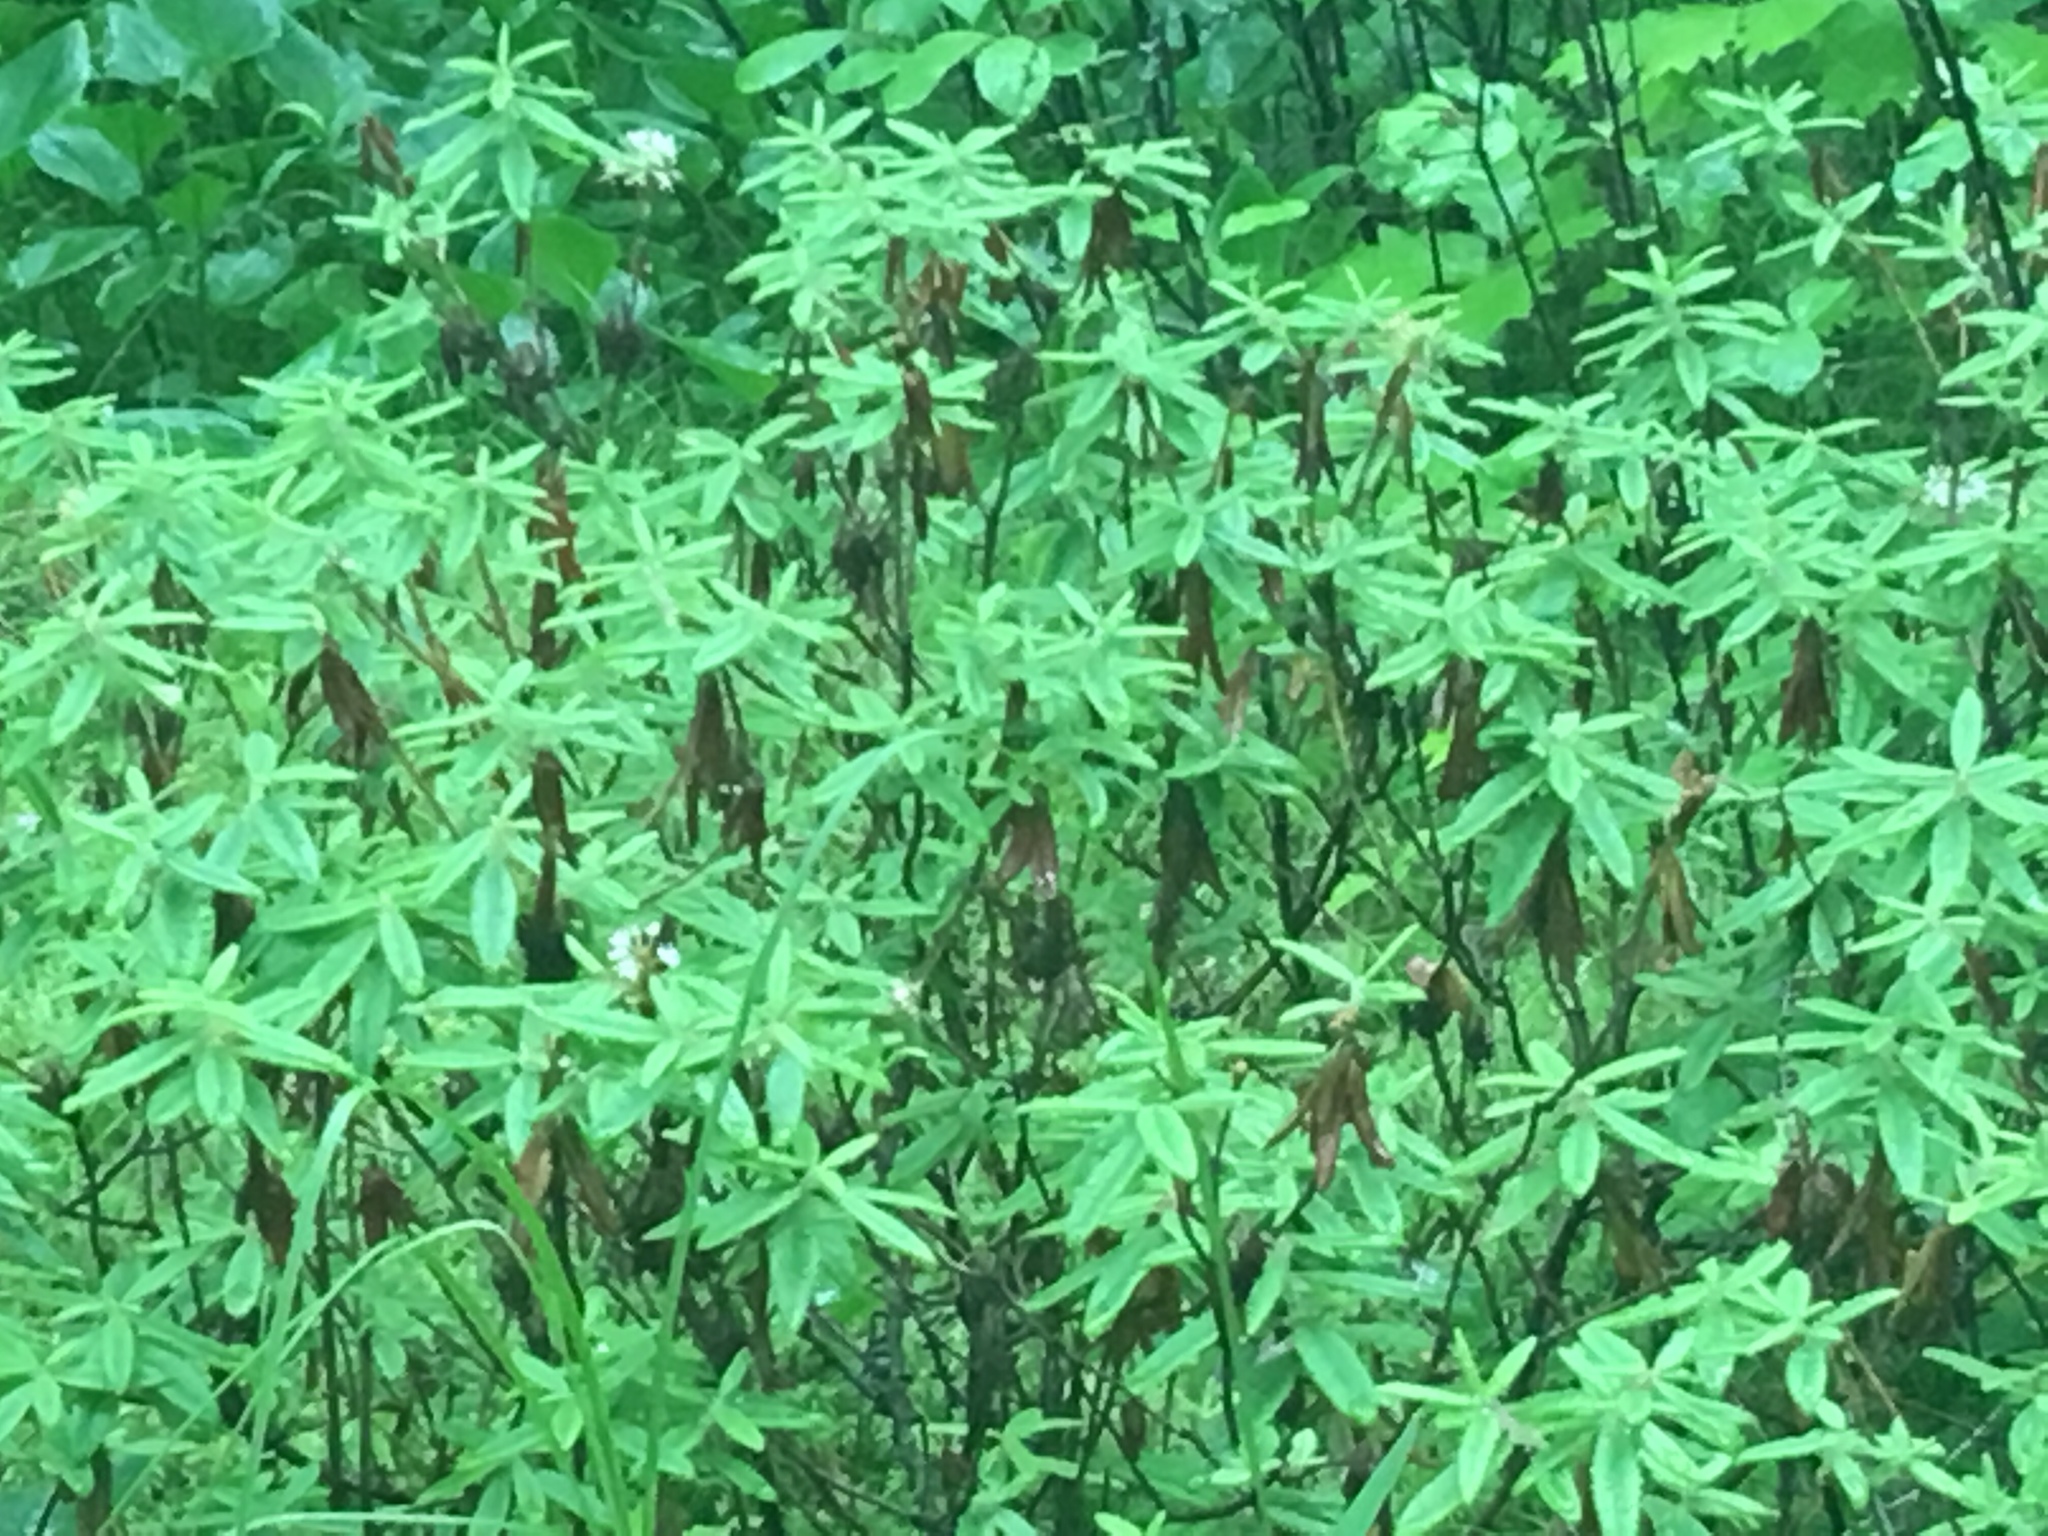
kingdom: Plantae
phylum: Tracheophyta
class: Magnoliopsida
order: Ericales
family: Ericaceae
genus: Rhododendron
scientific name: Rhododendron groenlandicum
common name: Bog labrador tea
